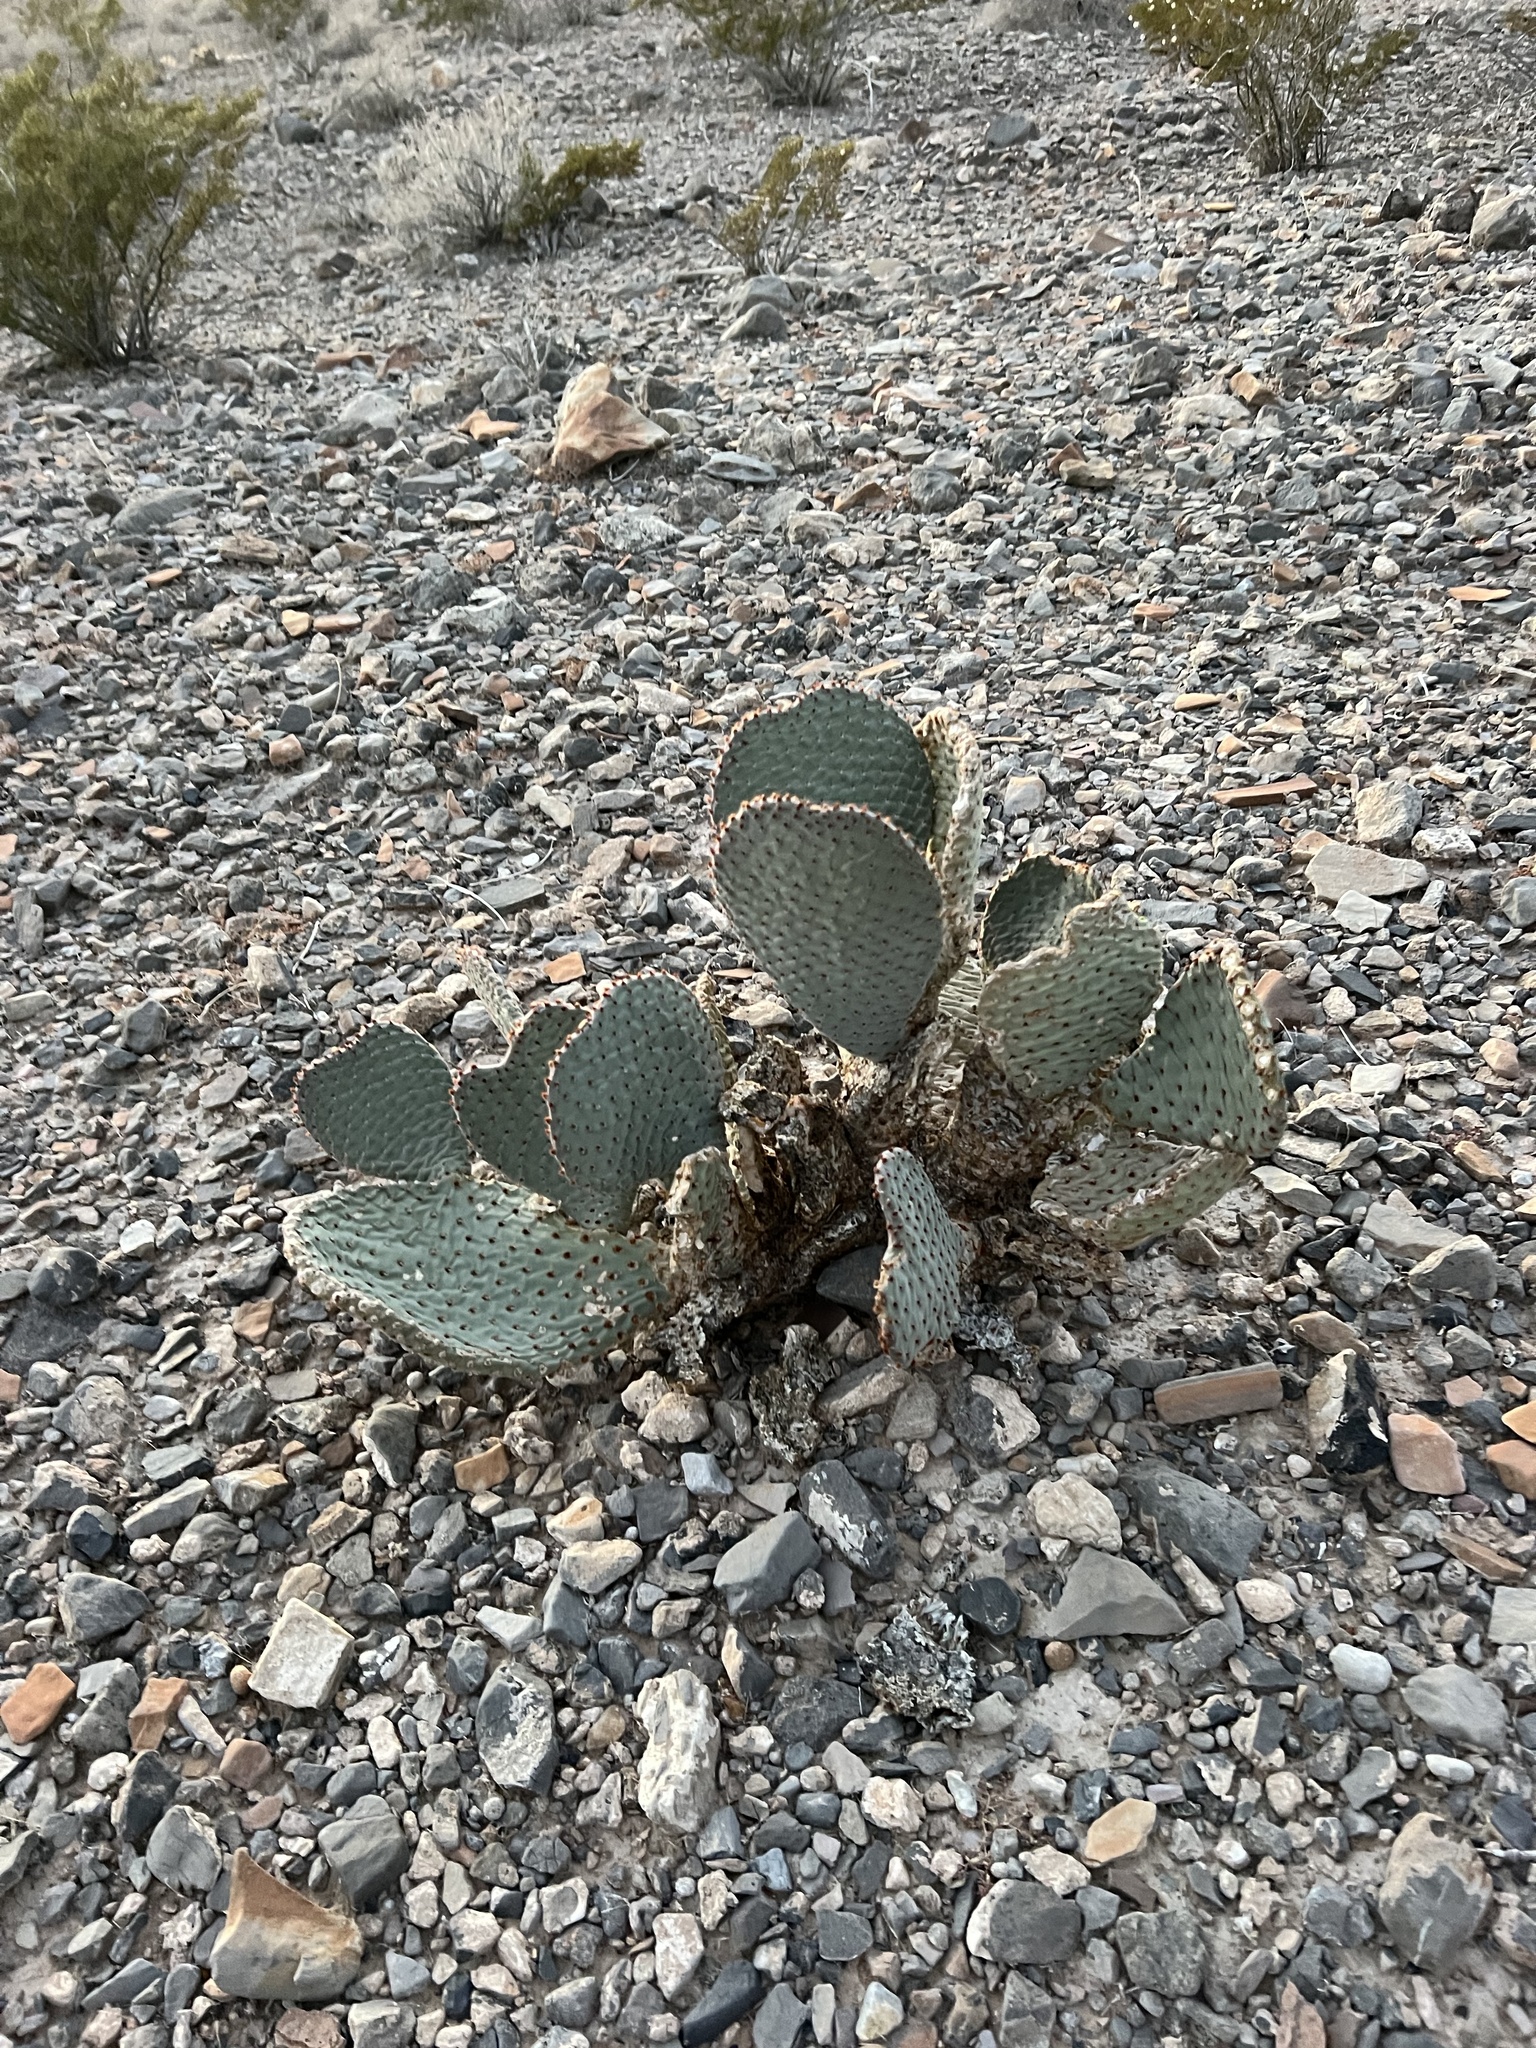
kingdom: Plantae
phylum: Tracheophyta
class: Magnoliopsida
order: Caryophyllales
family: Cactaceae
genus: Opuntia
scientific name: Opuntia basilaris
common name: Beavertail prickly-pear
